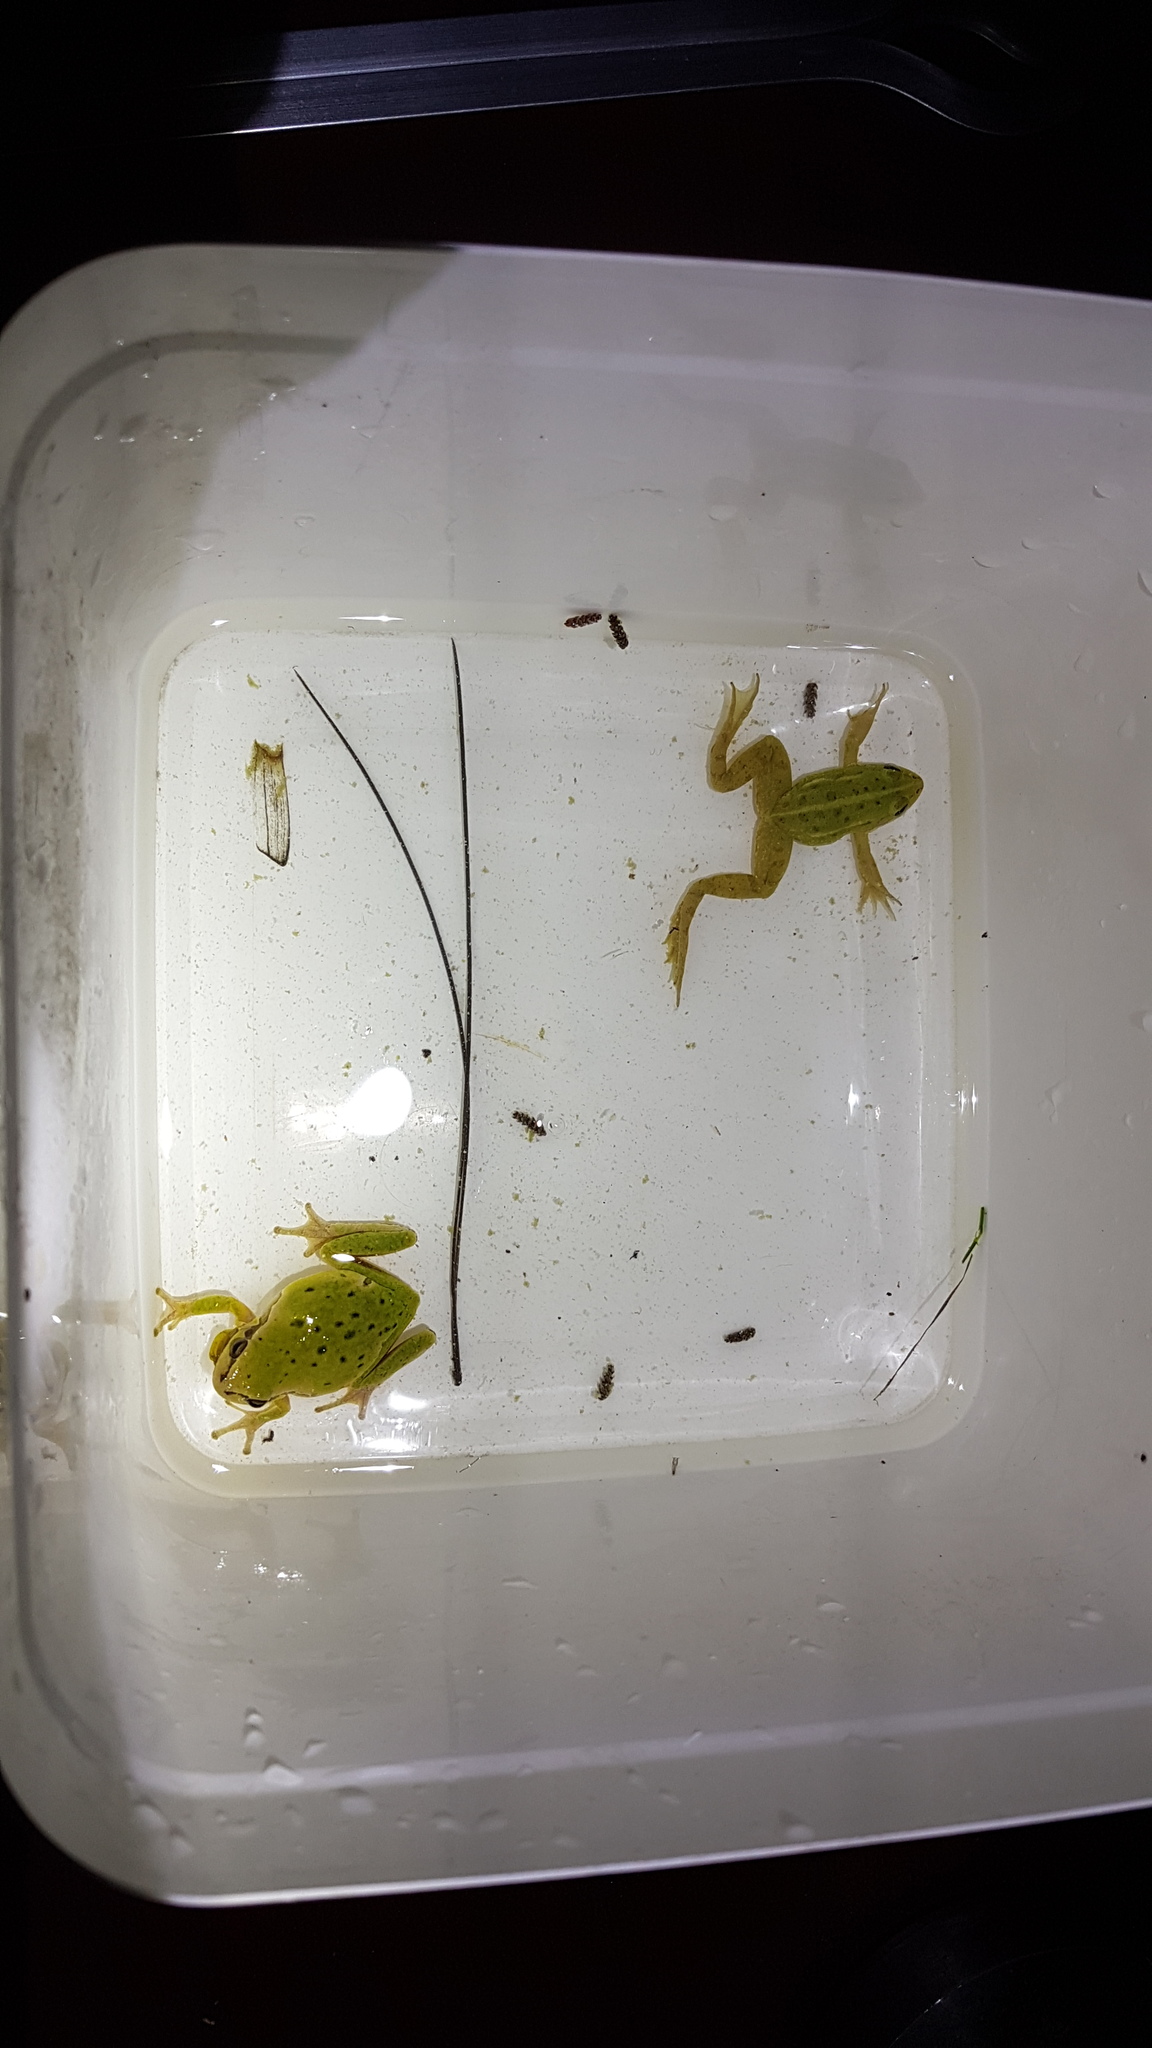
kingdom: Animalia
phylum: Chordata
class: Amphibia
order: Anura
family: Hylidae
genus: Hyla
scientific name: Hyla arborea
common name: Common tree frog
